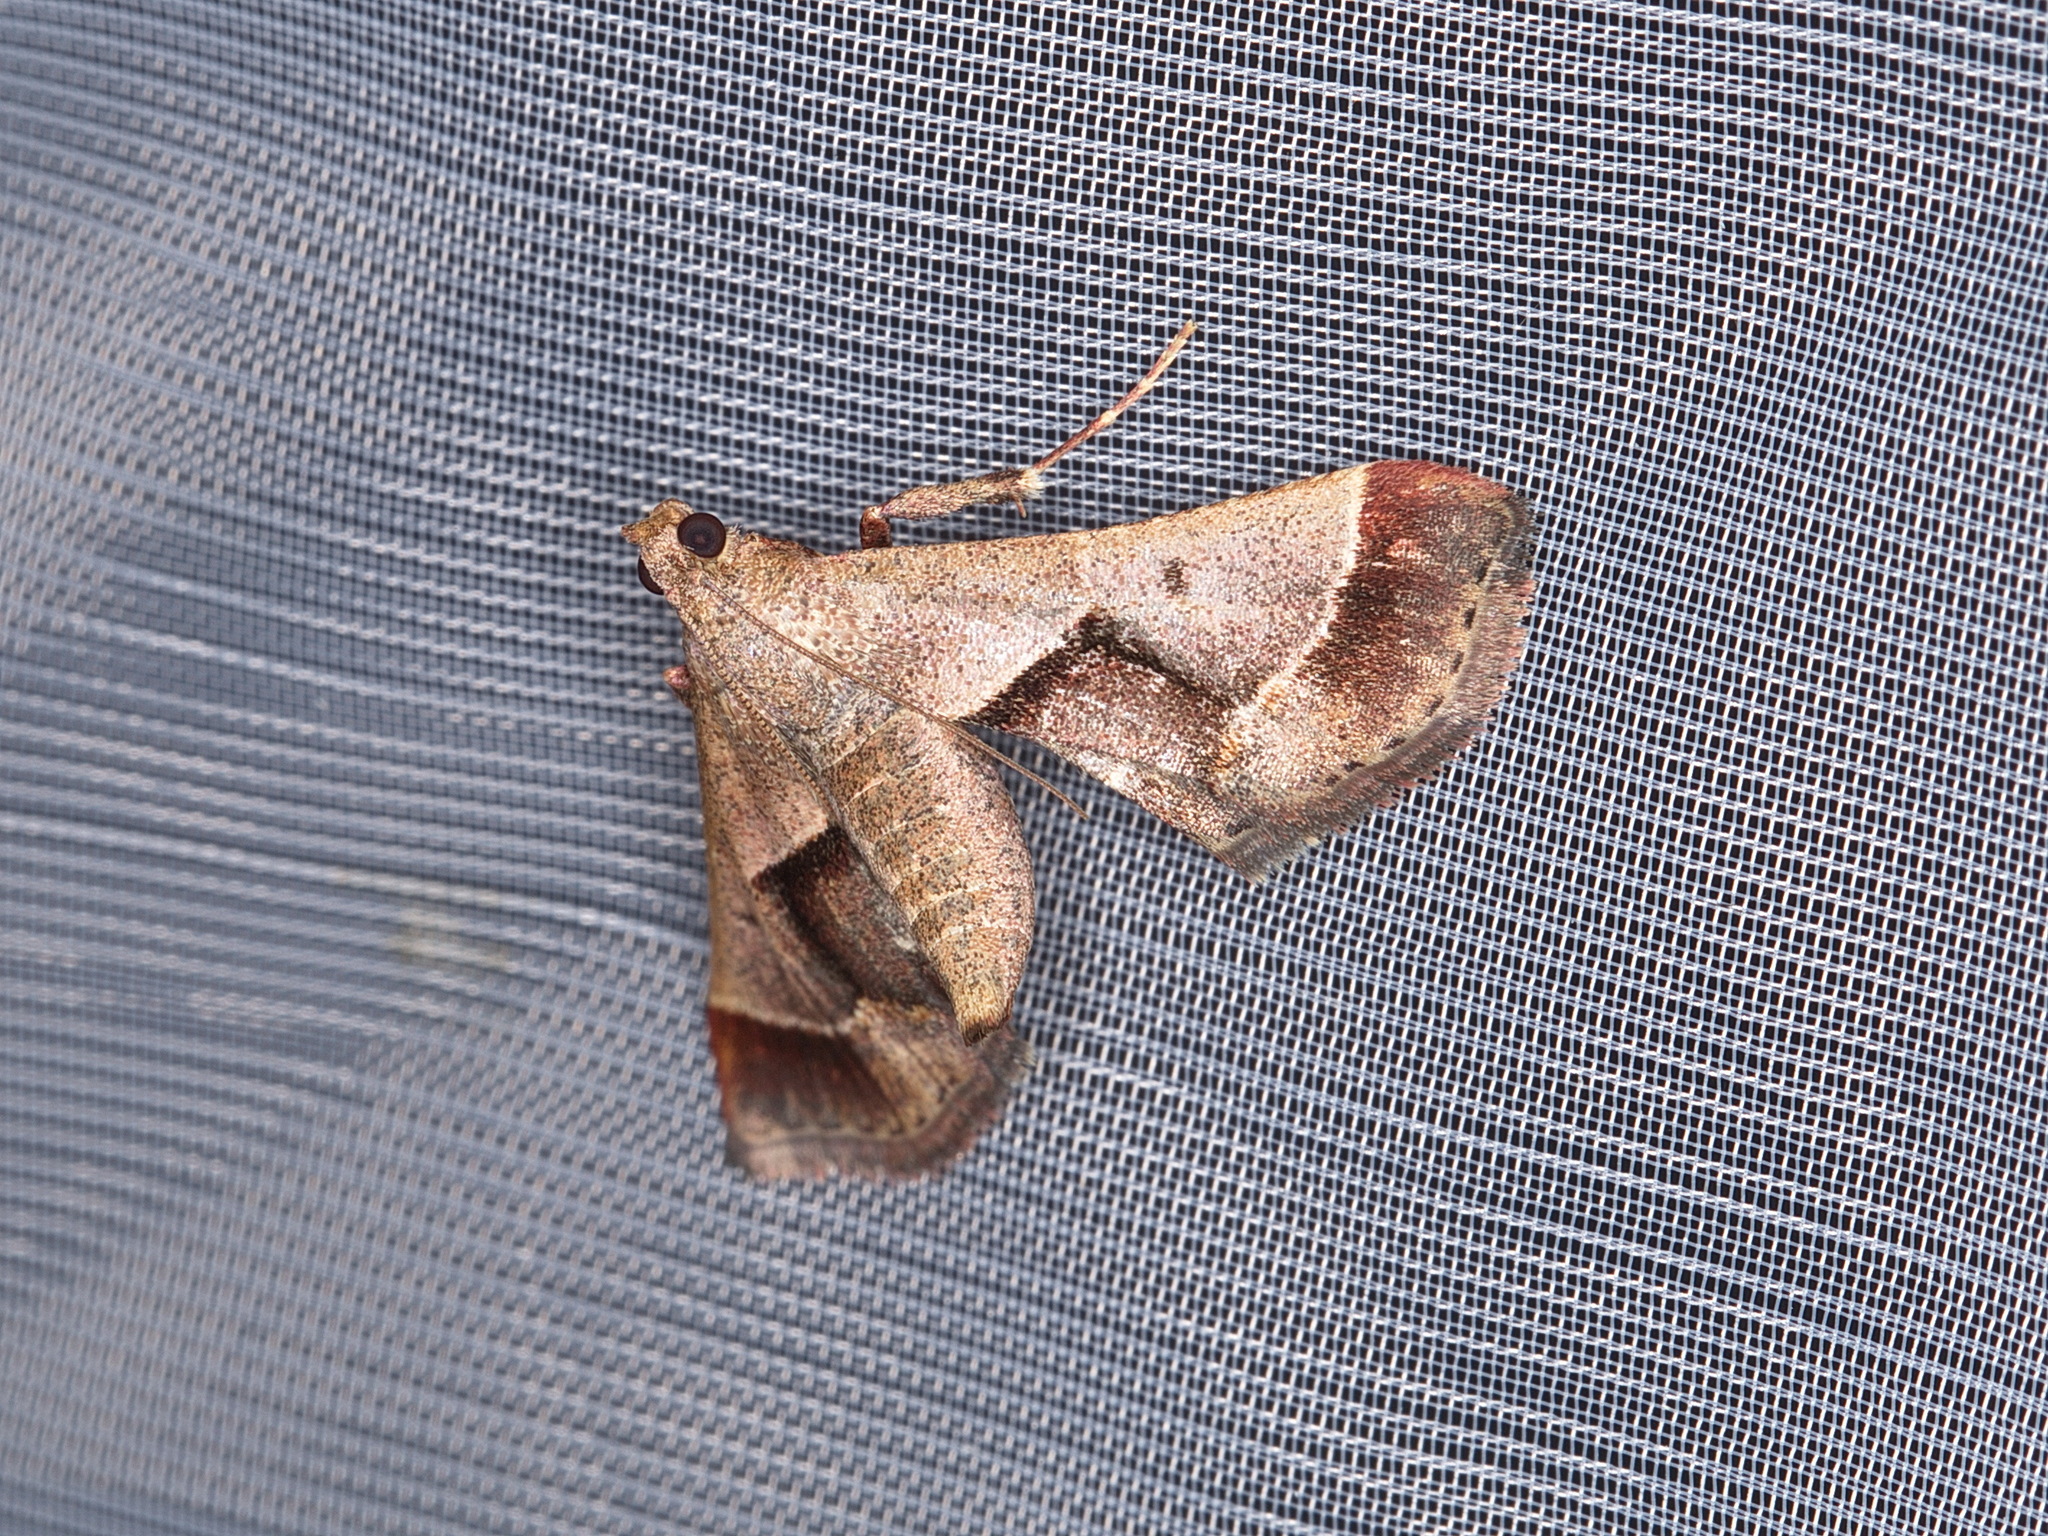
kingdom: Animalia
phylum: Arthropoda
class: Insecta
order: Lepidoptera
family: Pyralidae
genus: Gauna
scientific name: Gauna aegusalis
